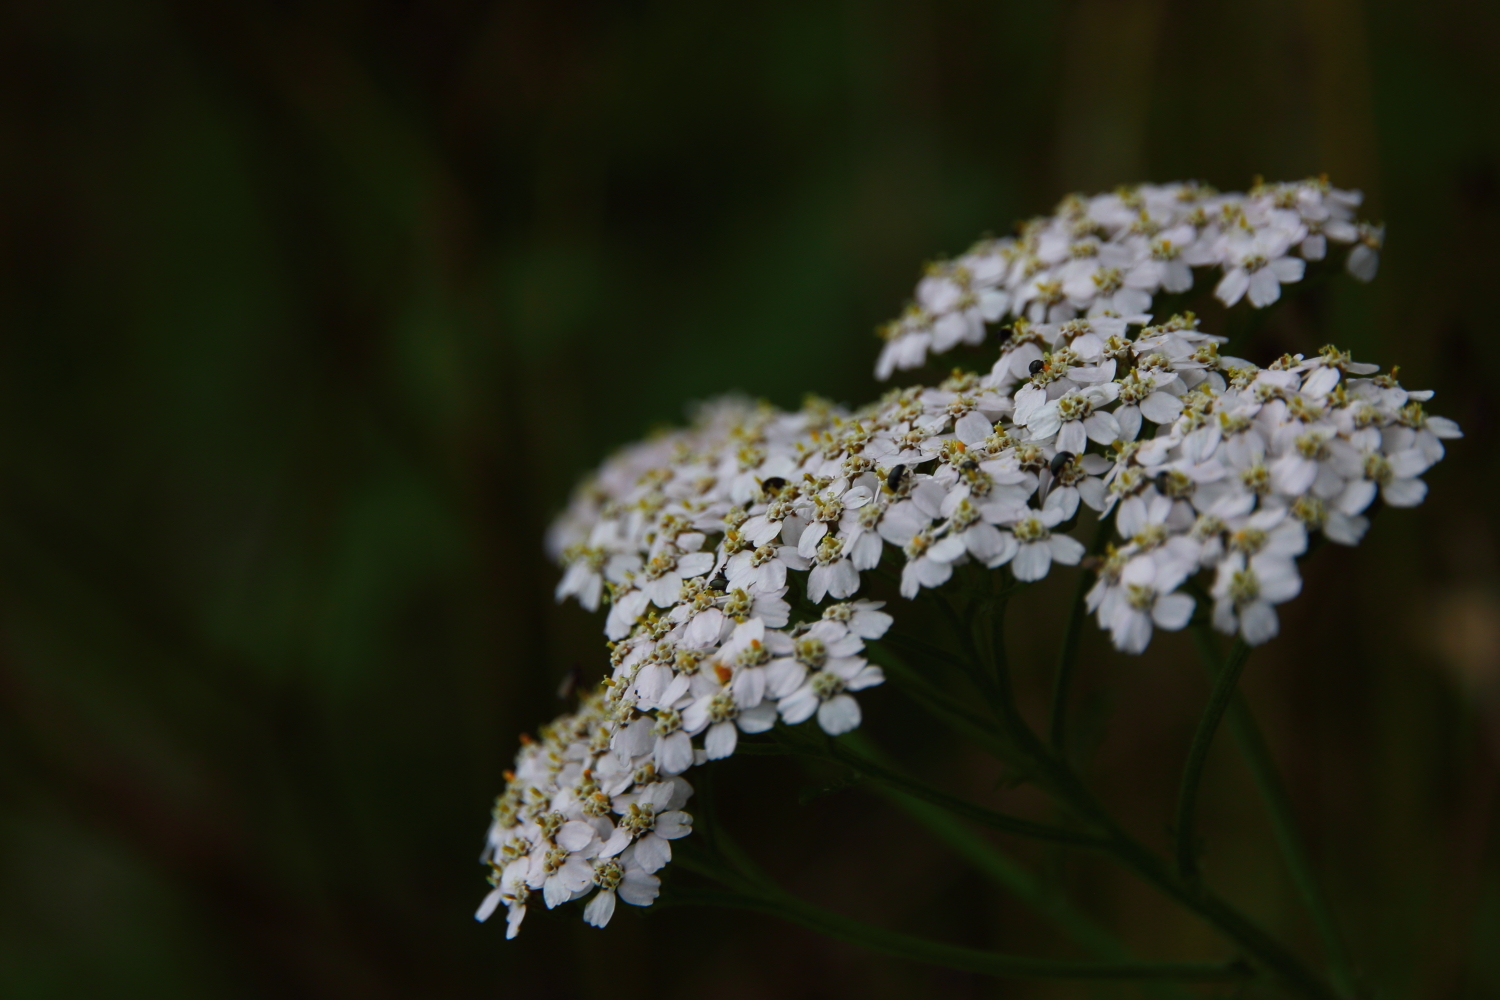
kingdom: Plantae
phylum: Tracheophyta
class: Magnoliopsida
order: Asterales
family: Asteraceae
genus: Achillea
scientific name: Achillea millefolium
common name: Yarrow
